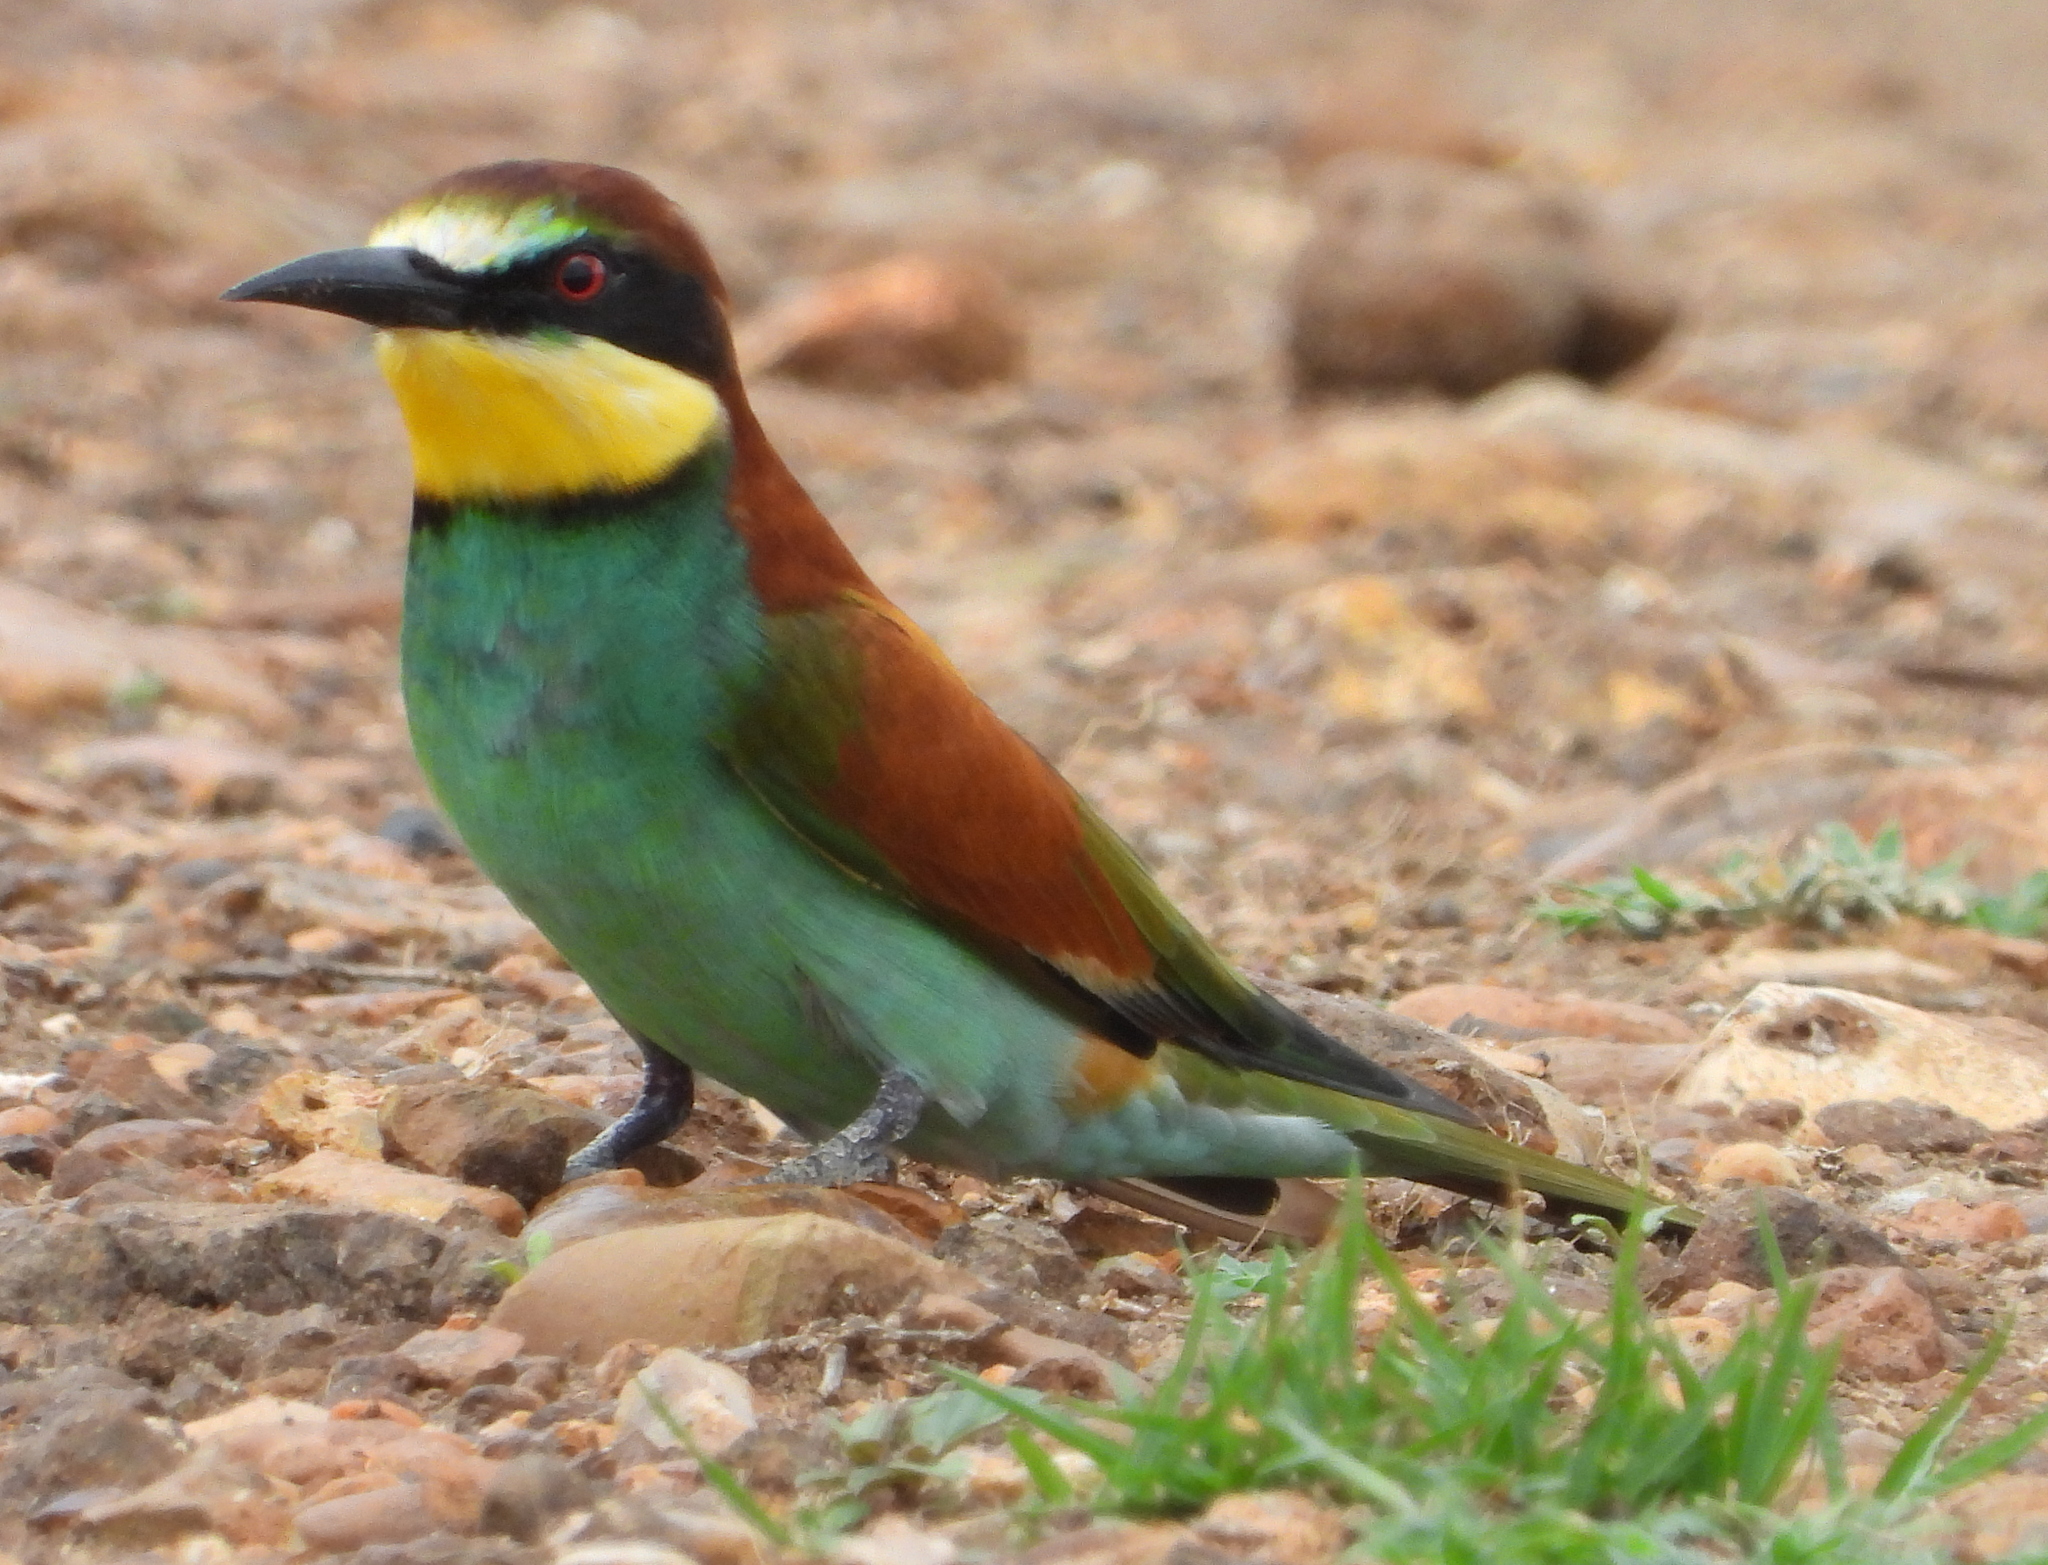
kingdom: Animalia
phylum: Chordata
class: Aves
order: Coraciiformes
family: Meropidae
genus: Merops
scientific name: Merops apiaster
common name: European bee-eater
